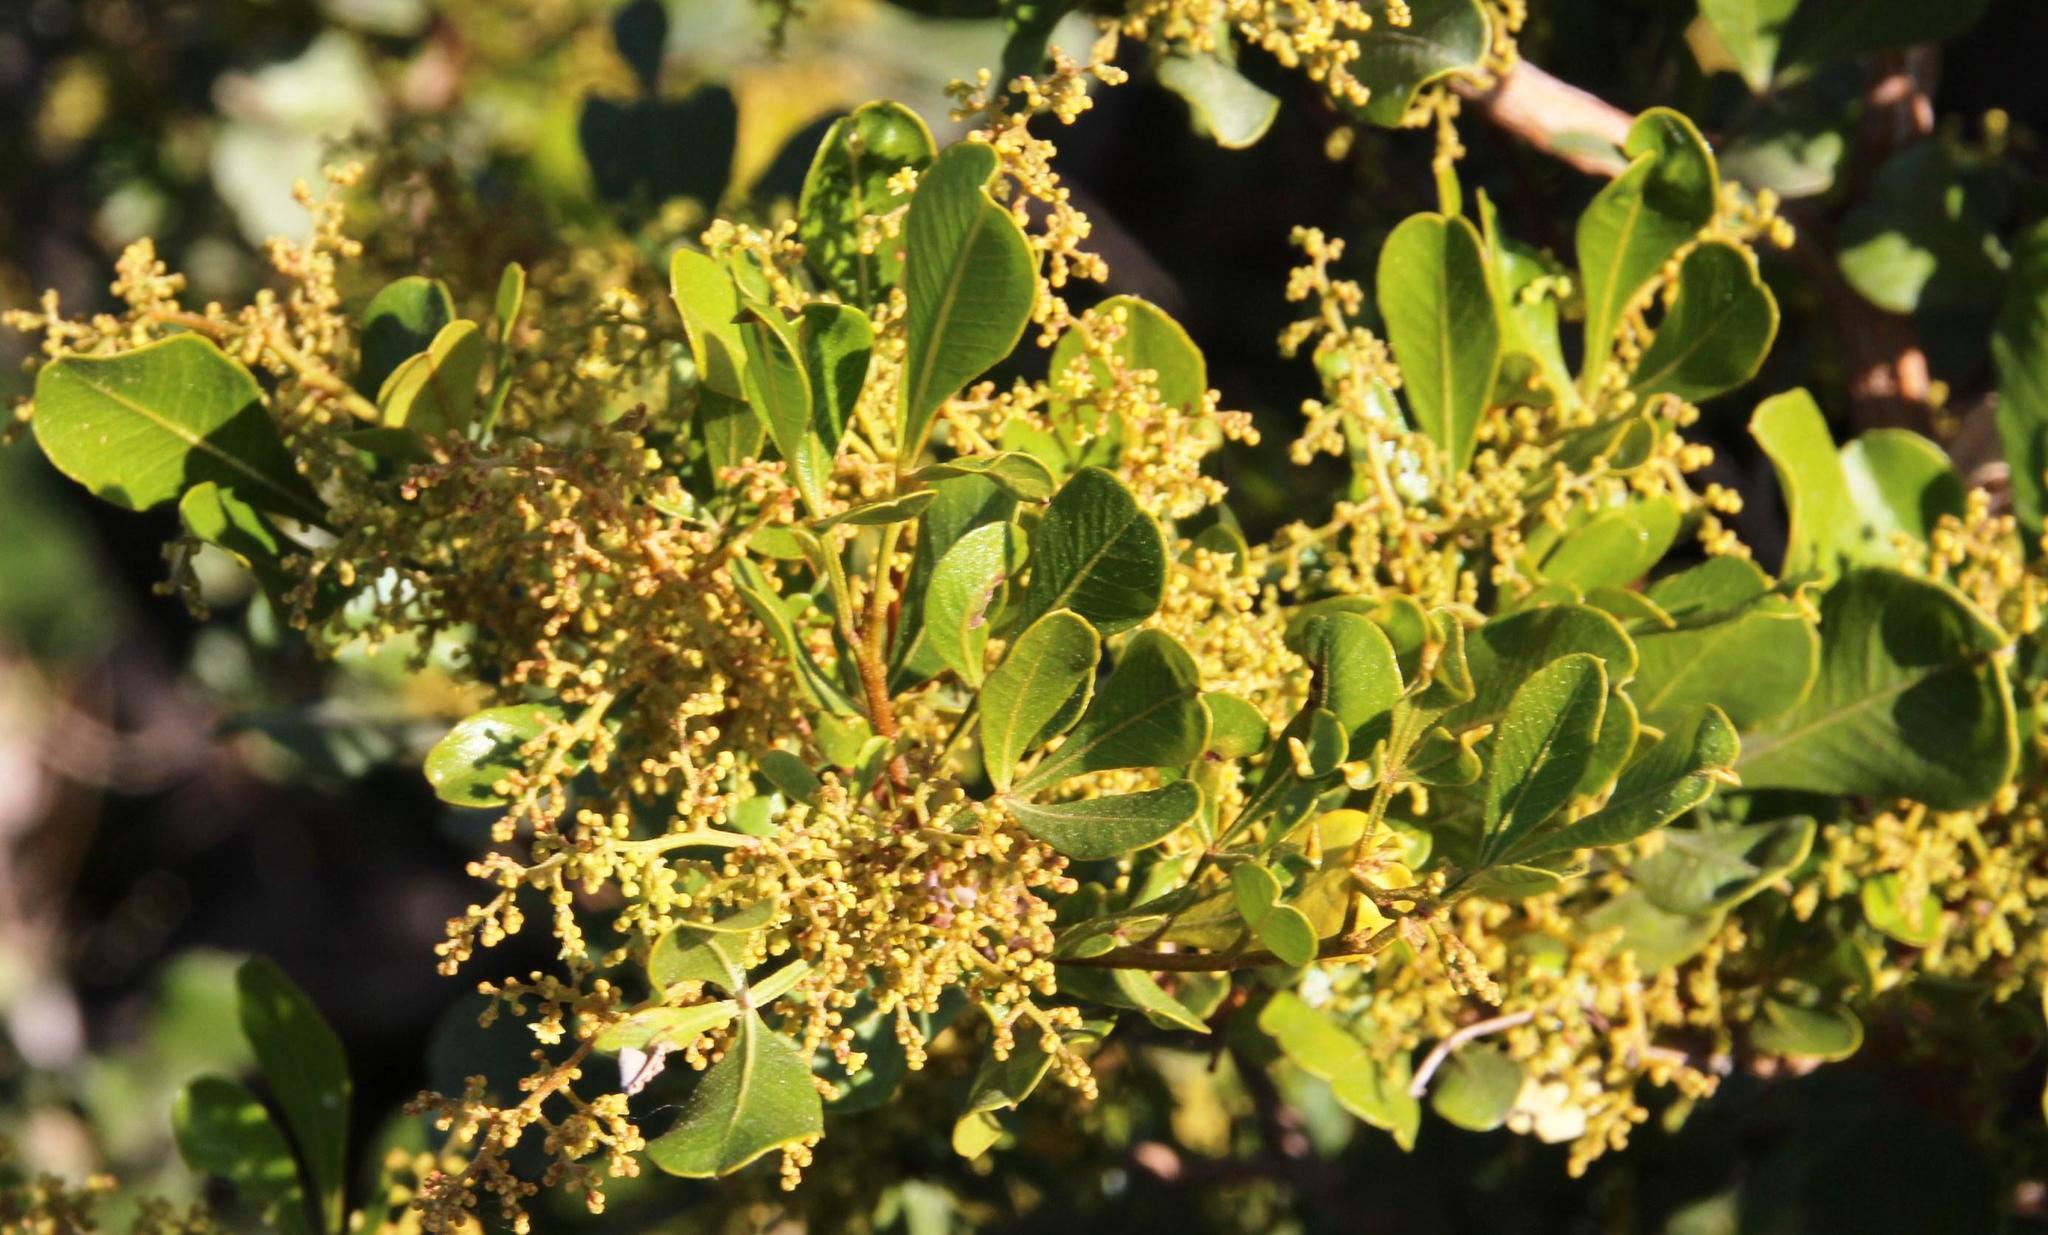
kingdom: Plantae
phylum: Tracheophyta
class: Magnoliopsida
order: Sapindales
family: Anacardiaceae
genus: Searsia
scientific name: Searsia pallens
